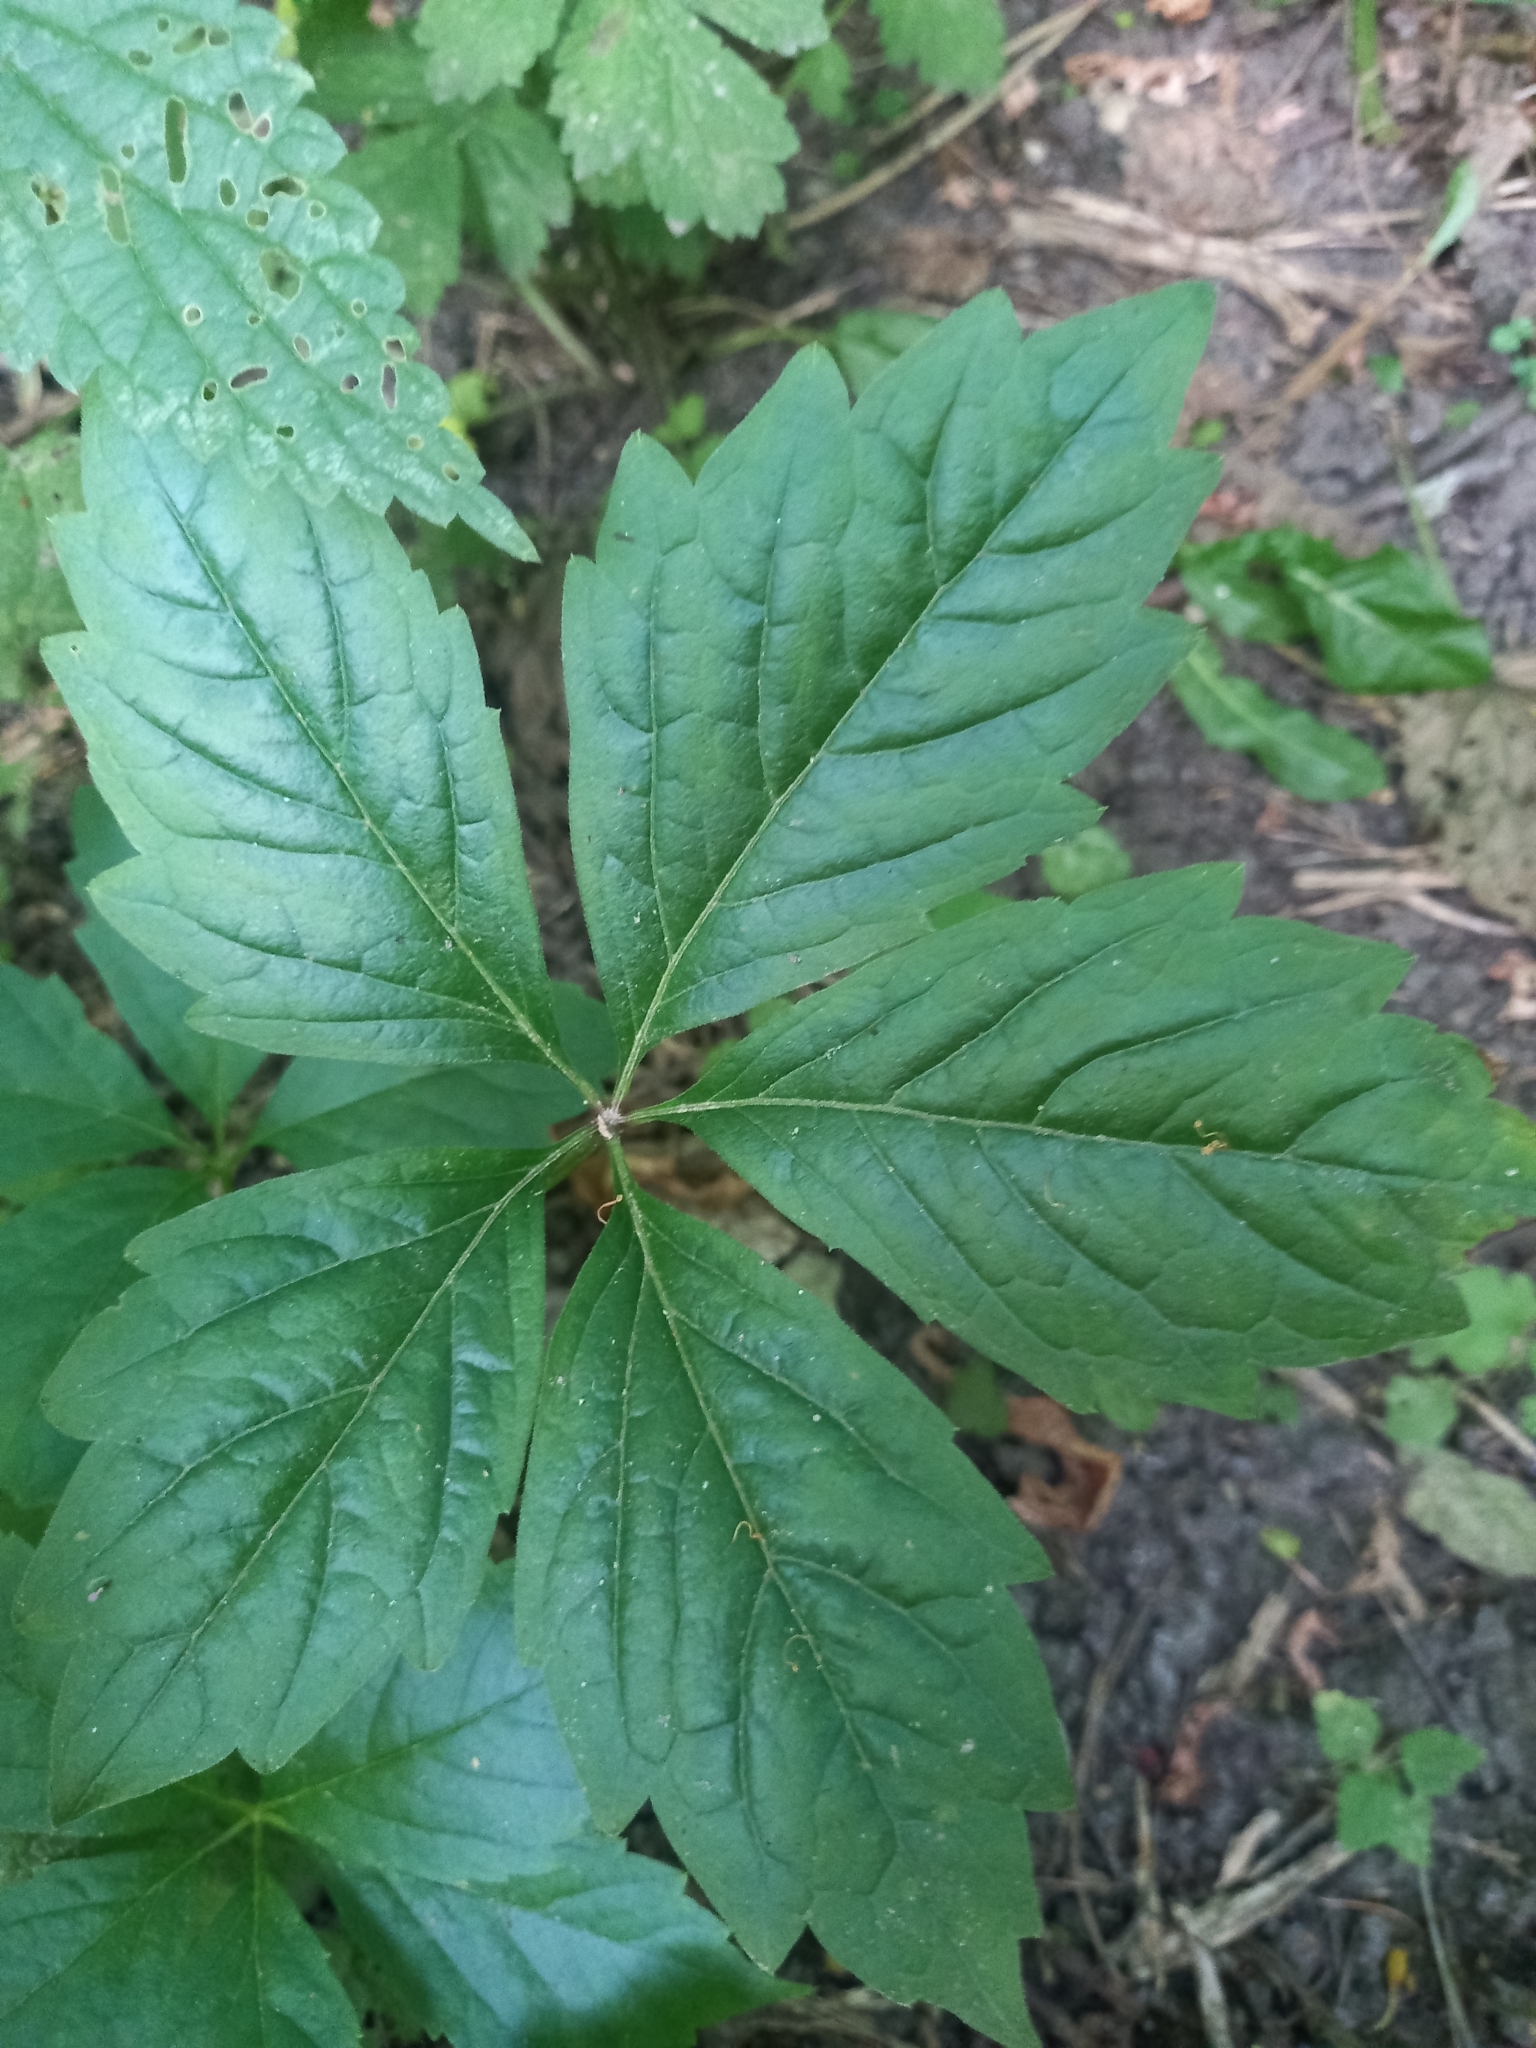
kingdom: Plantae
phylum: Tracheophyta
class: Magnoliopsida
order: Vitales
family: Vitaceae
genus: Parthenocissus
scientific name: Parthenocissus inserta
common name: False virginia-creeper
